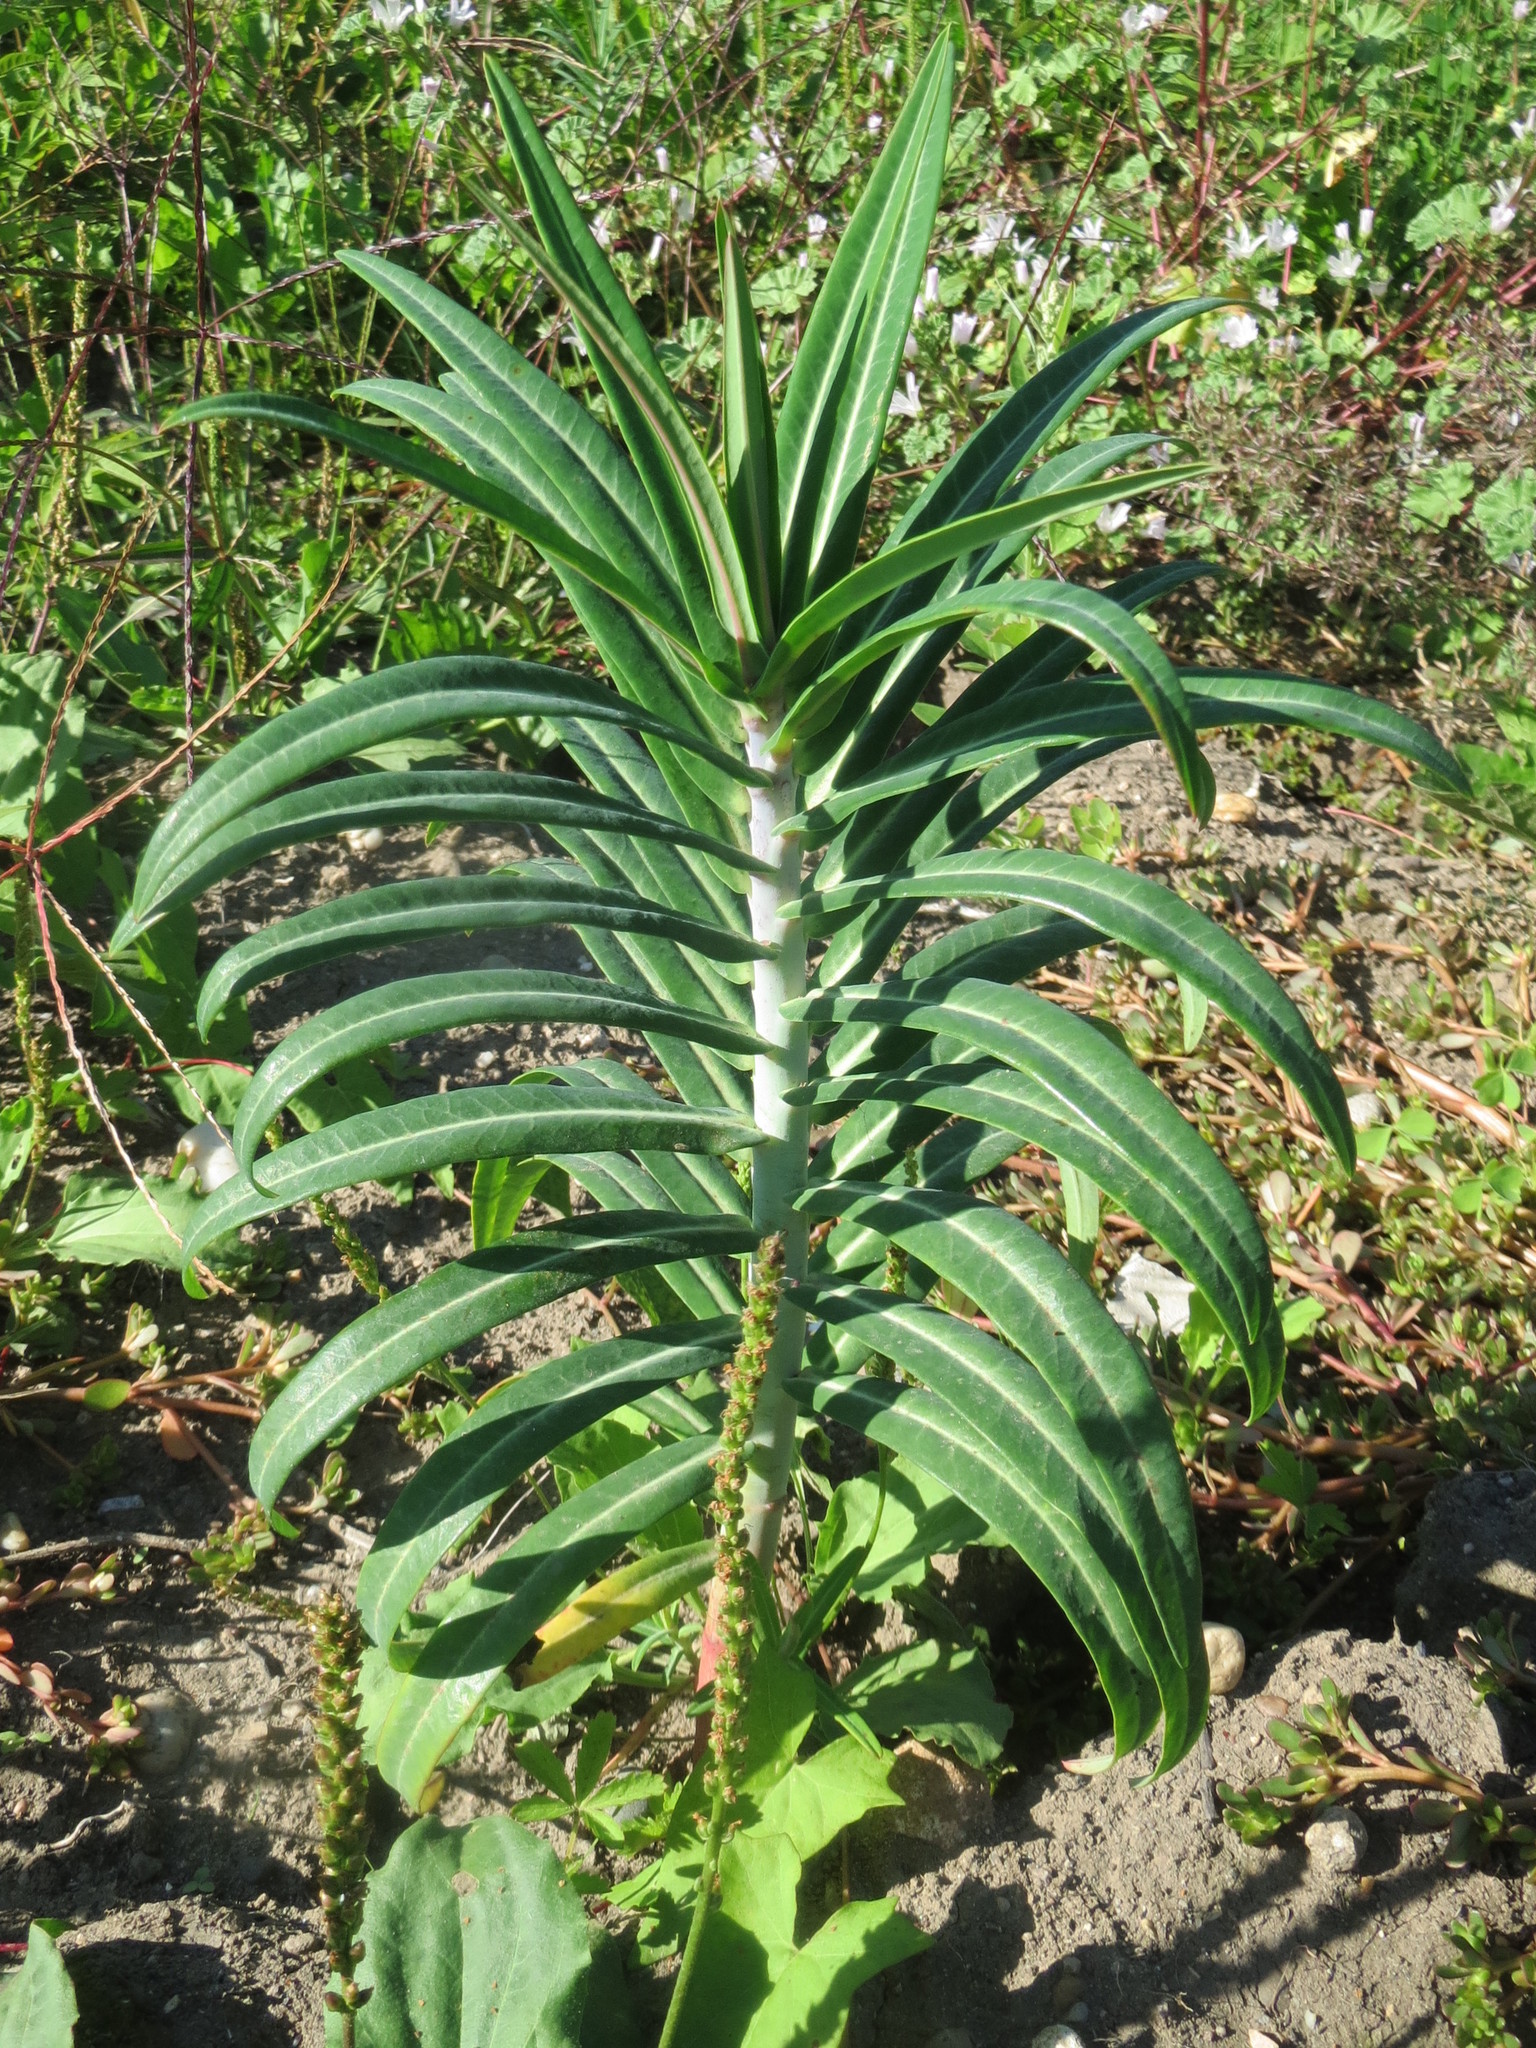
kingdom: Plantae
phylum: Tracheophyta
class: Magnoliopsida
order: Malpighiales
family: Euphorbiaceae
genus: Euphorbia
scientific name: Euphorbia lathyris
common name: Caper spurge
